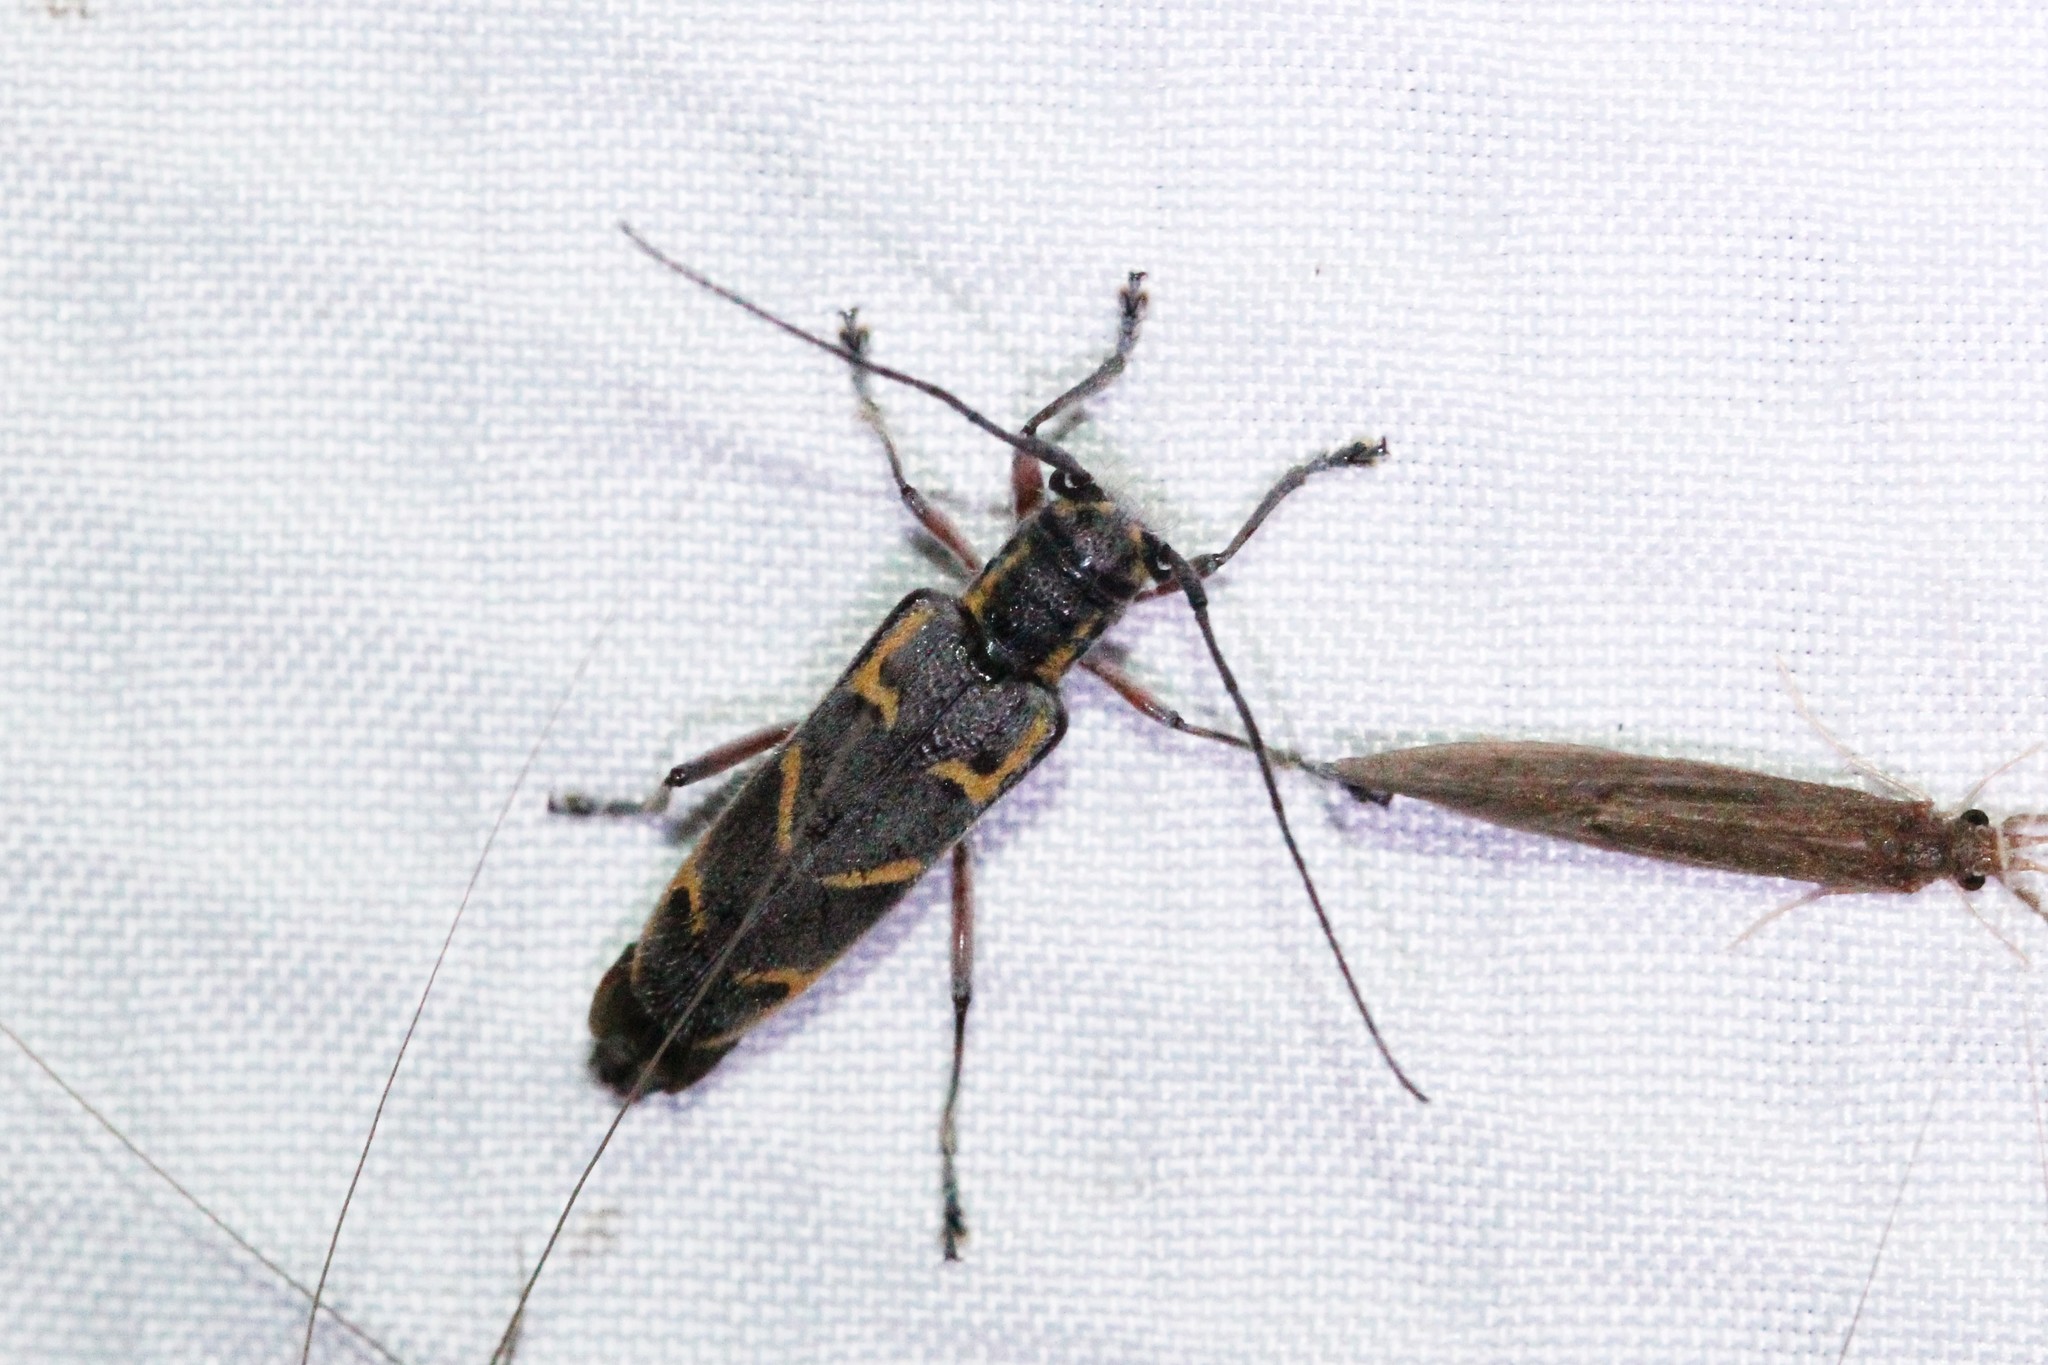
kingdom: Animalia
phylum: Arthropoda
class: Insecta
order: Coleoptera
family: Cerambycidae
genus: Saperda
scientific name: Saperda tridentata
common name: Elm borer
